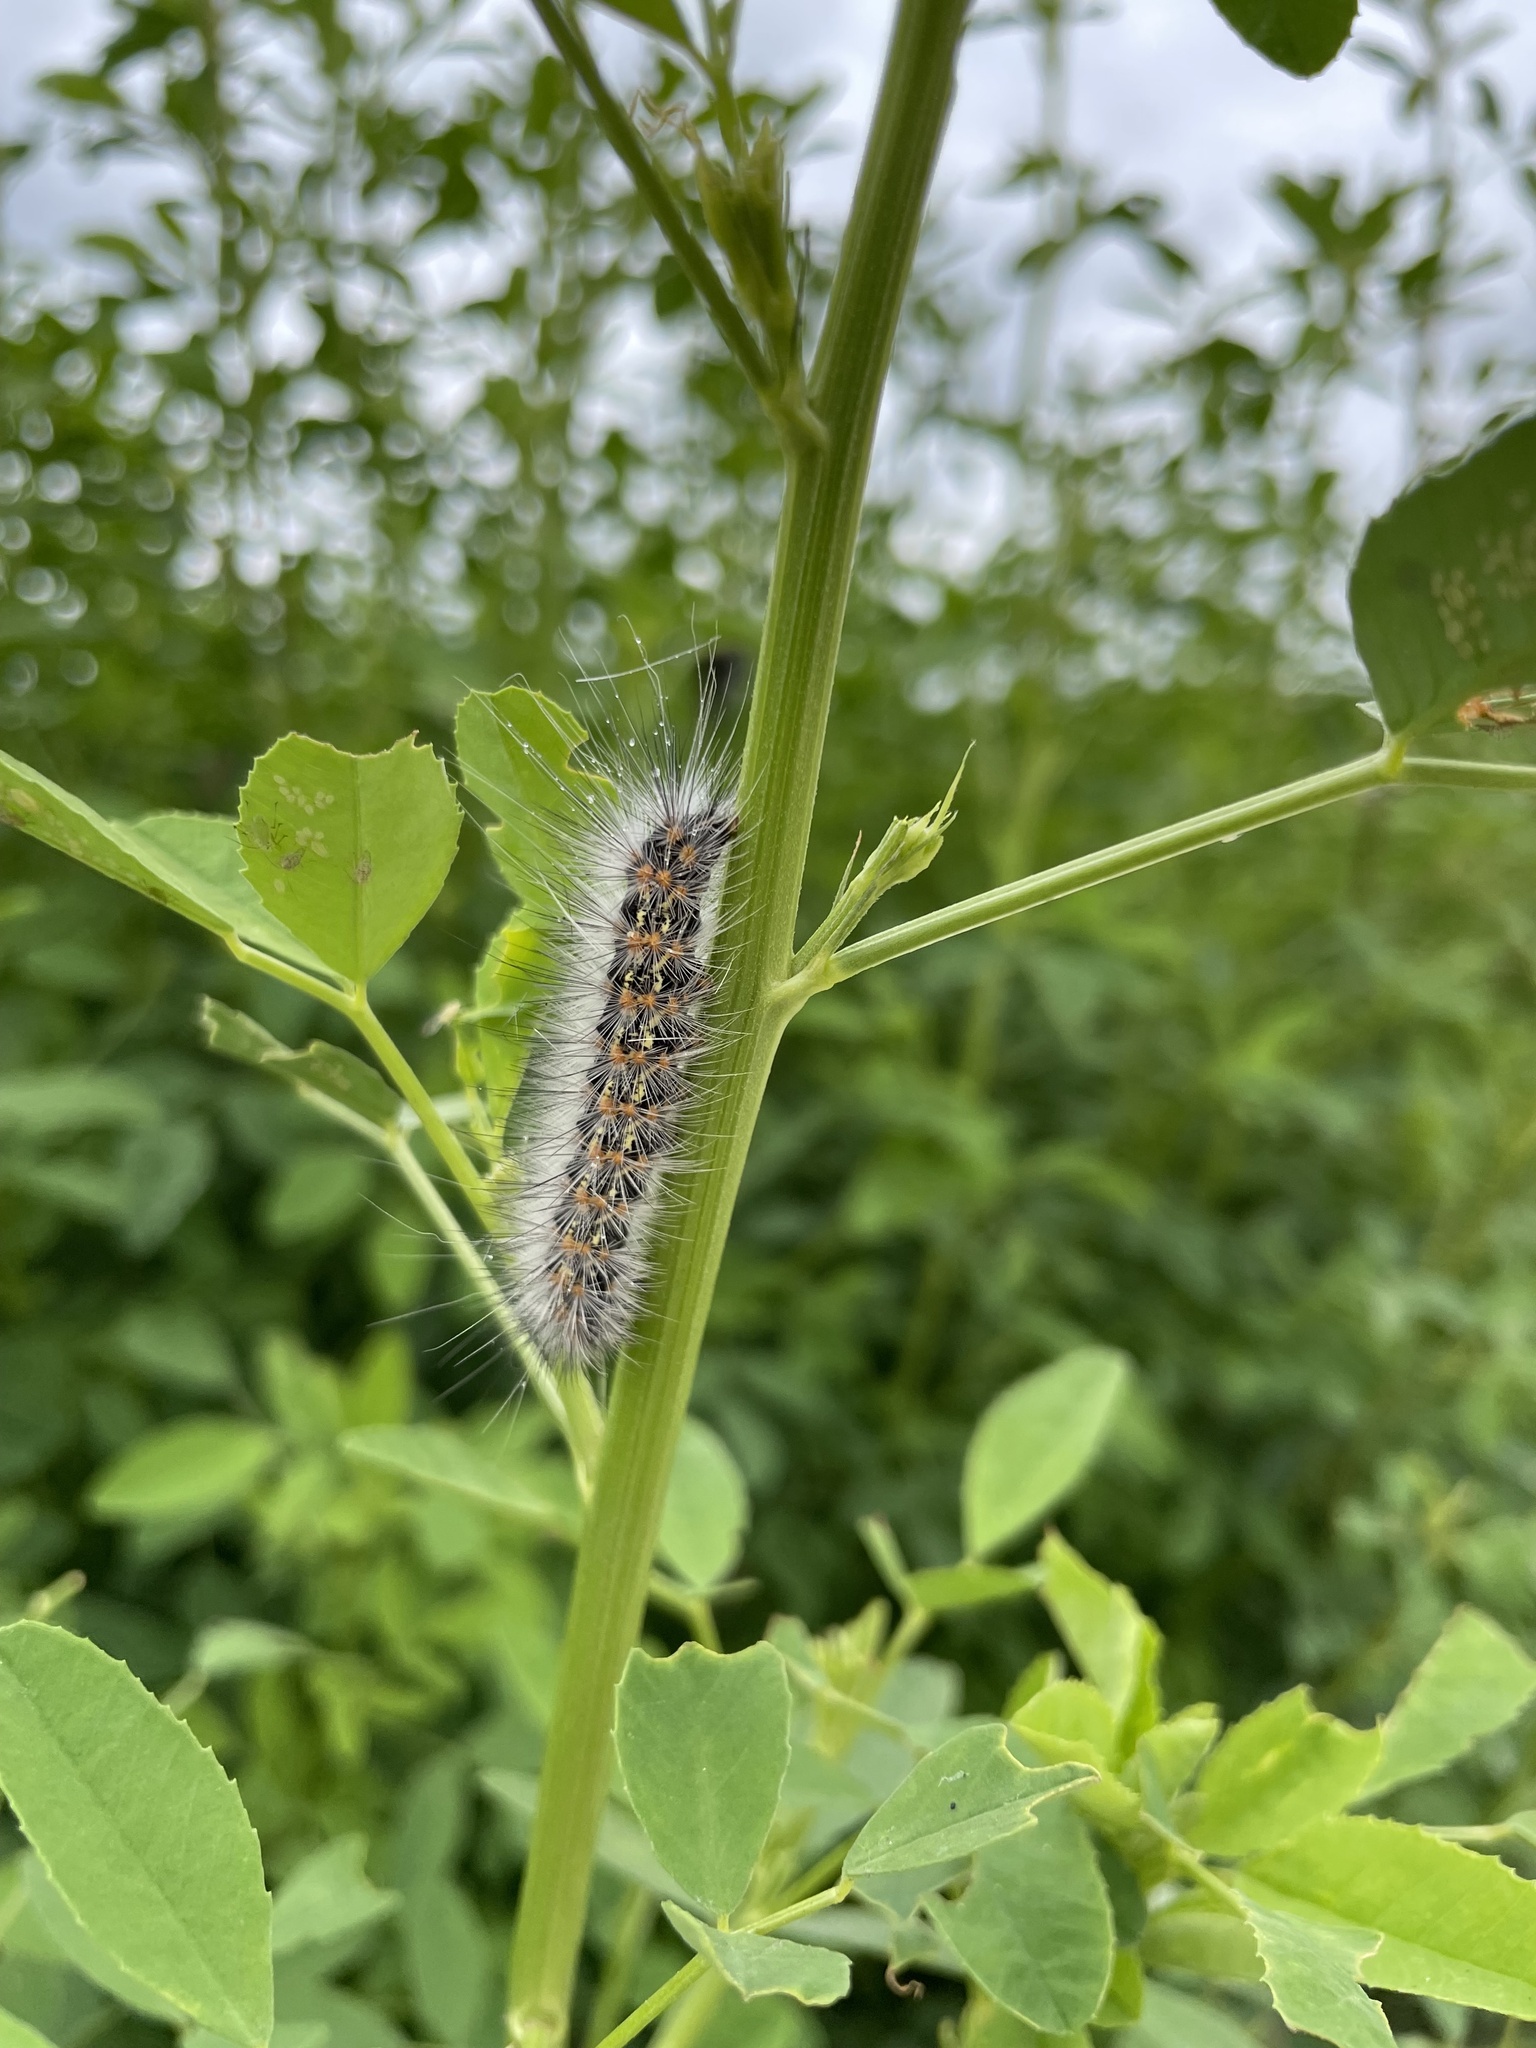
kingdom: Animalia
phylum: Arthropoda
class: Insecta
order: Lepidoptera
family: Erebidae
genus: Estigmene
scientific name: Estigmene acrea
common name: Salt marsh moth
